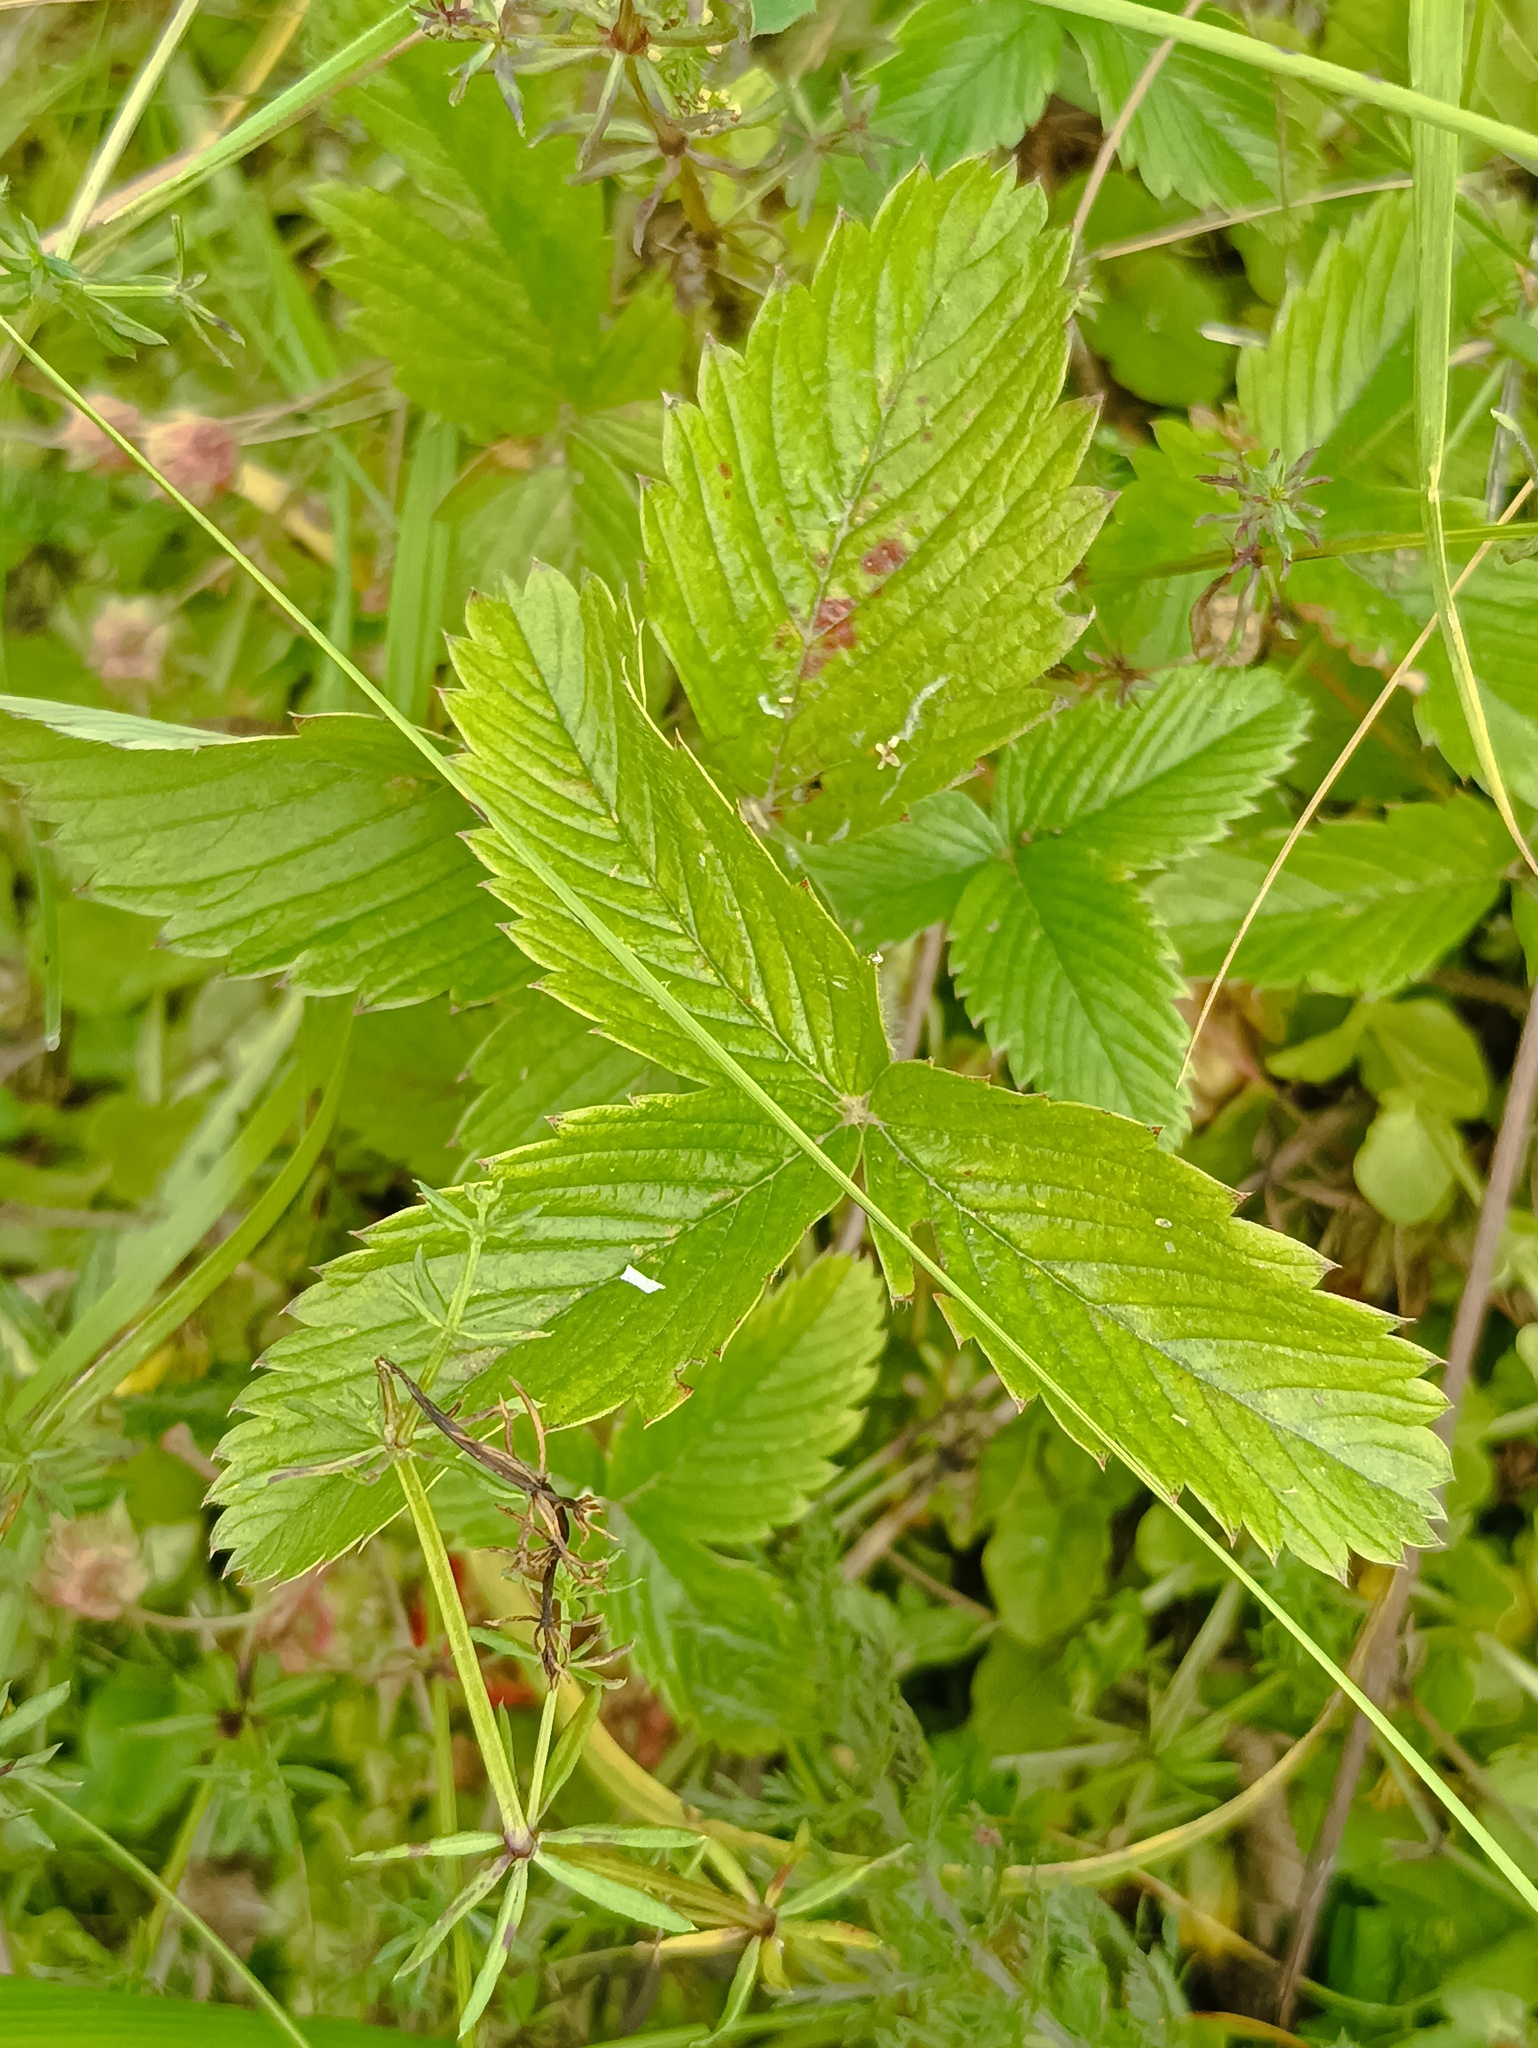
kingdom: Plantae
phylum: Tracheophyta
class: Magnoliopsida
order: Rosales
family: Rosaceae
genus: Fragaria
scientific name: Fragaria viridis
